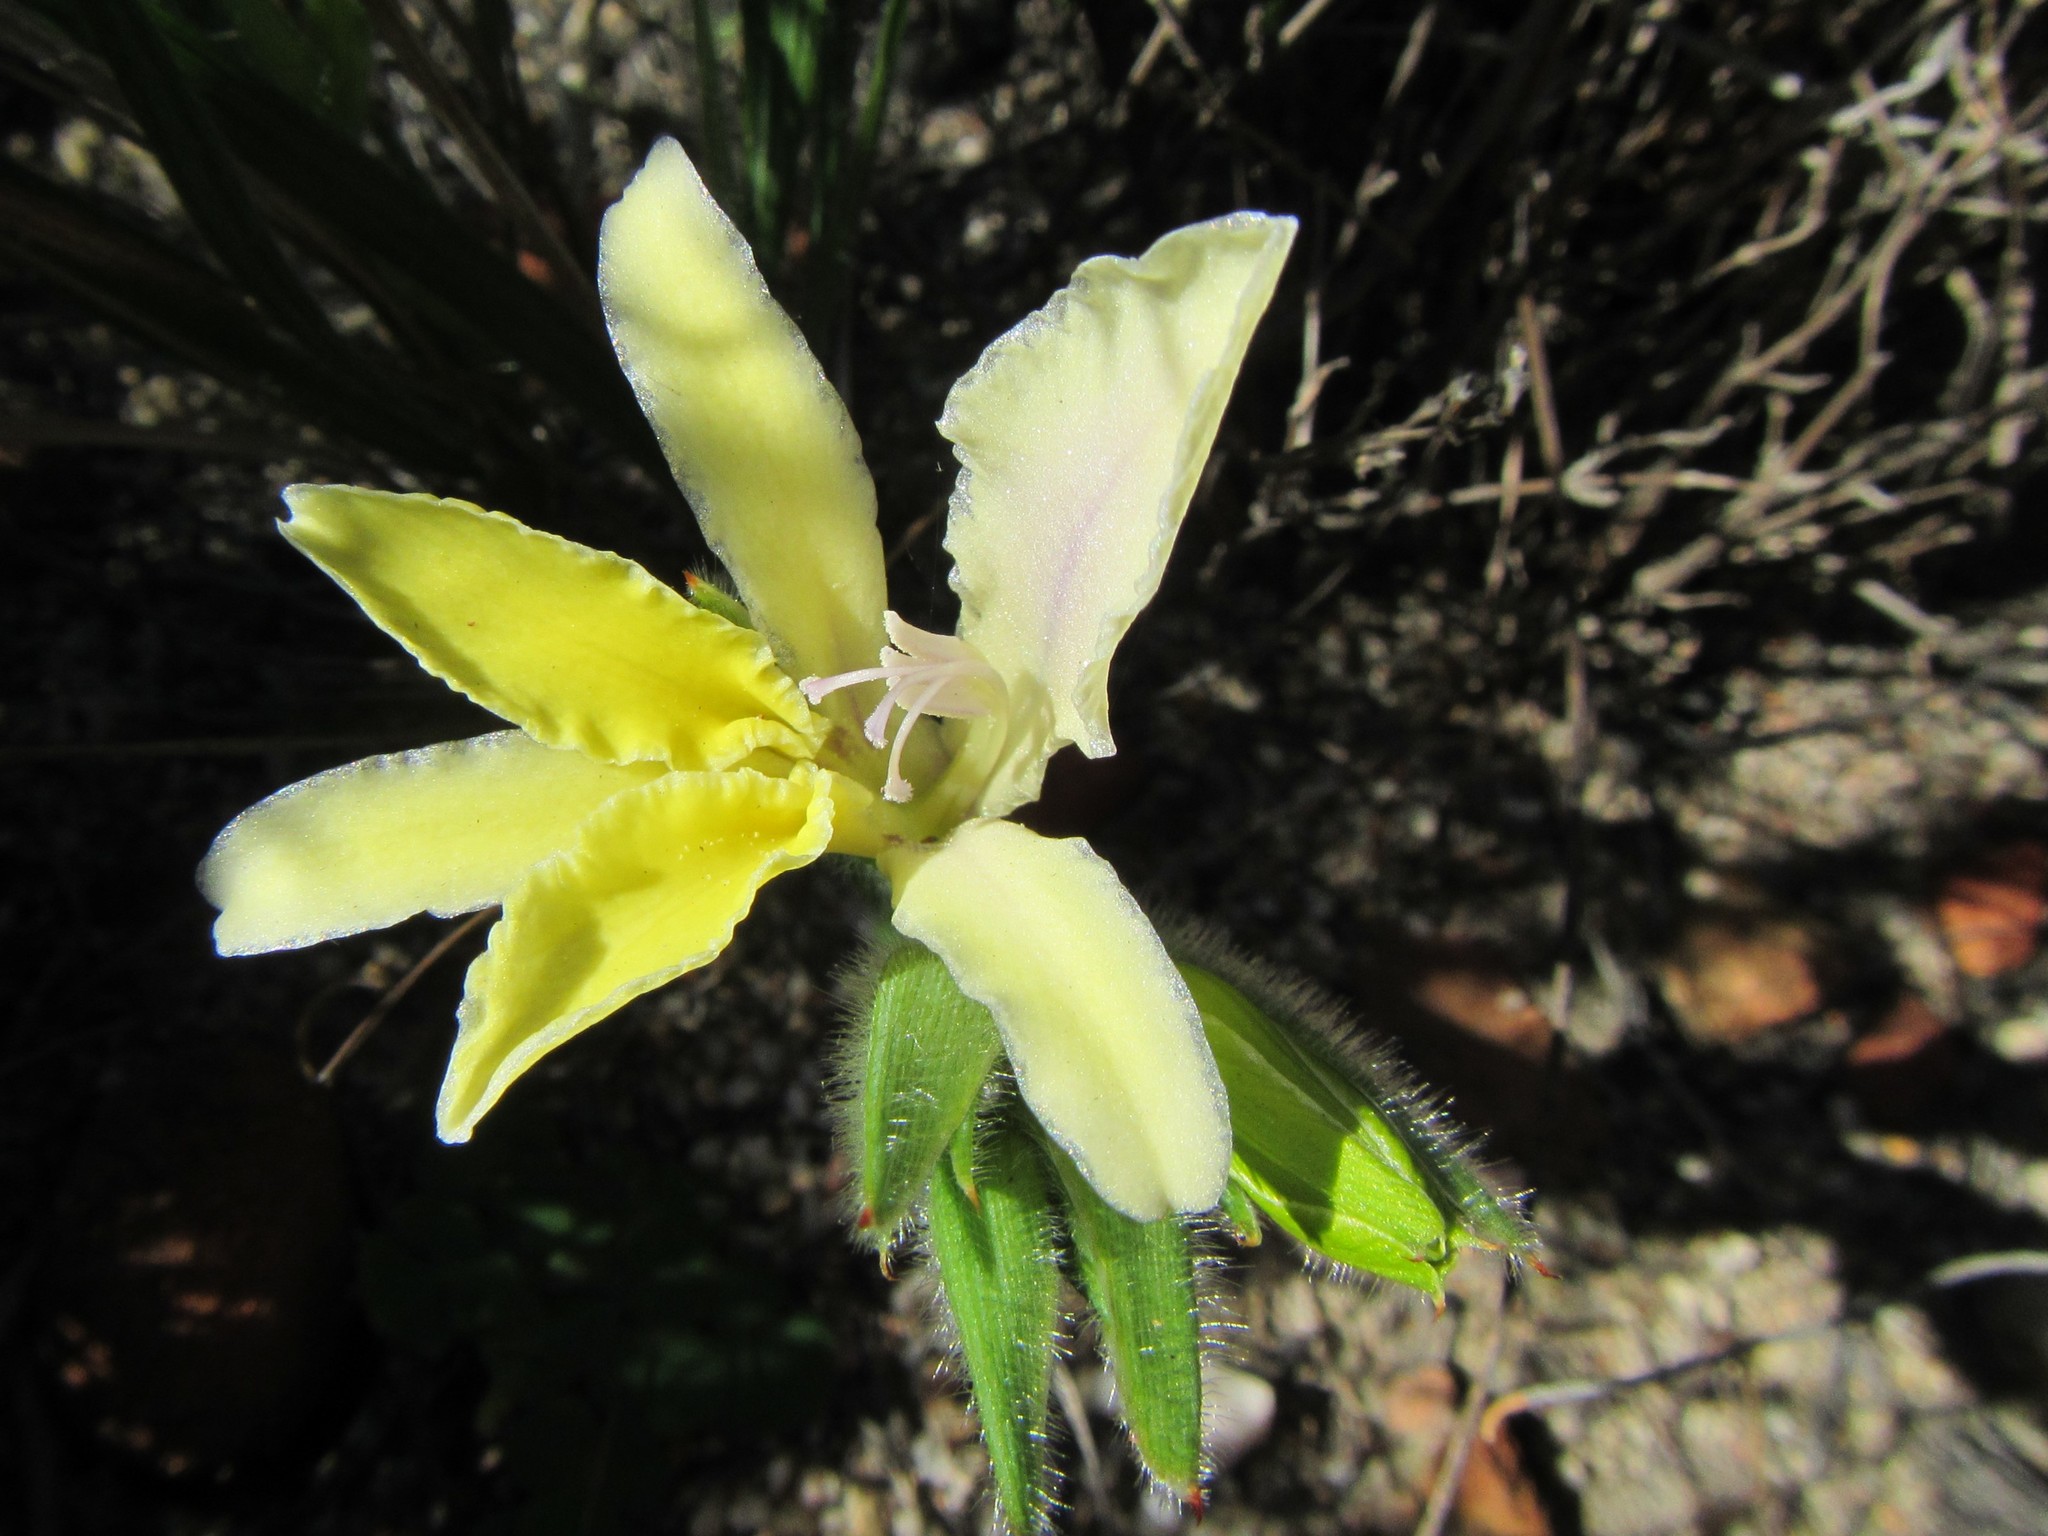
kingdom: Plantae
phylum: Tracheophyta
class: Liliopsida
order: Asparagales
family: Iridaceae
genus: Babiana
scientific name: Babiana patula
